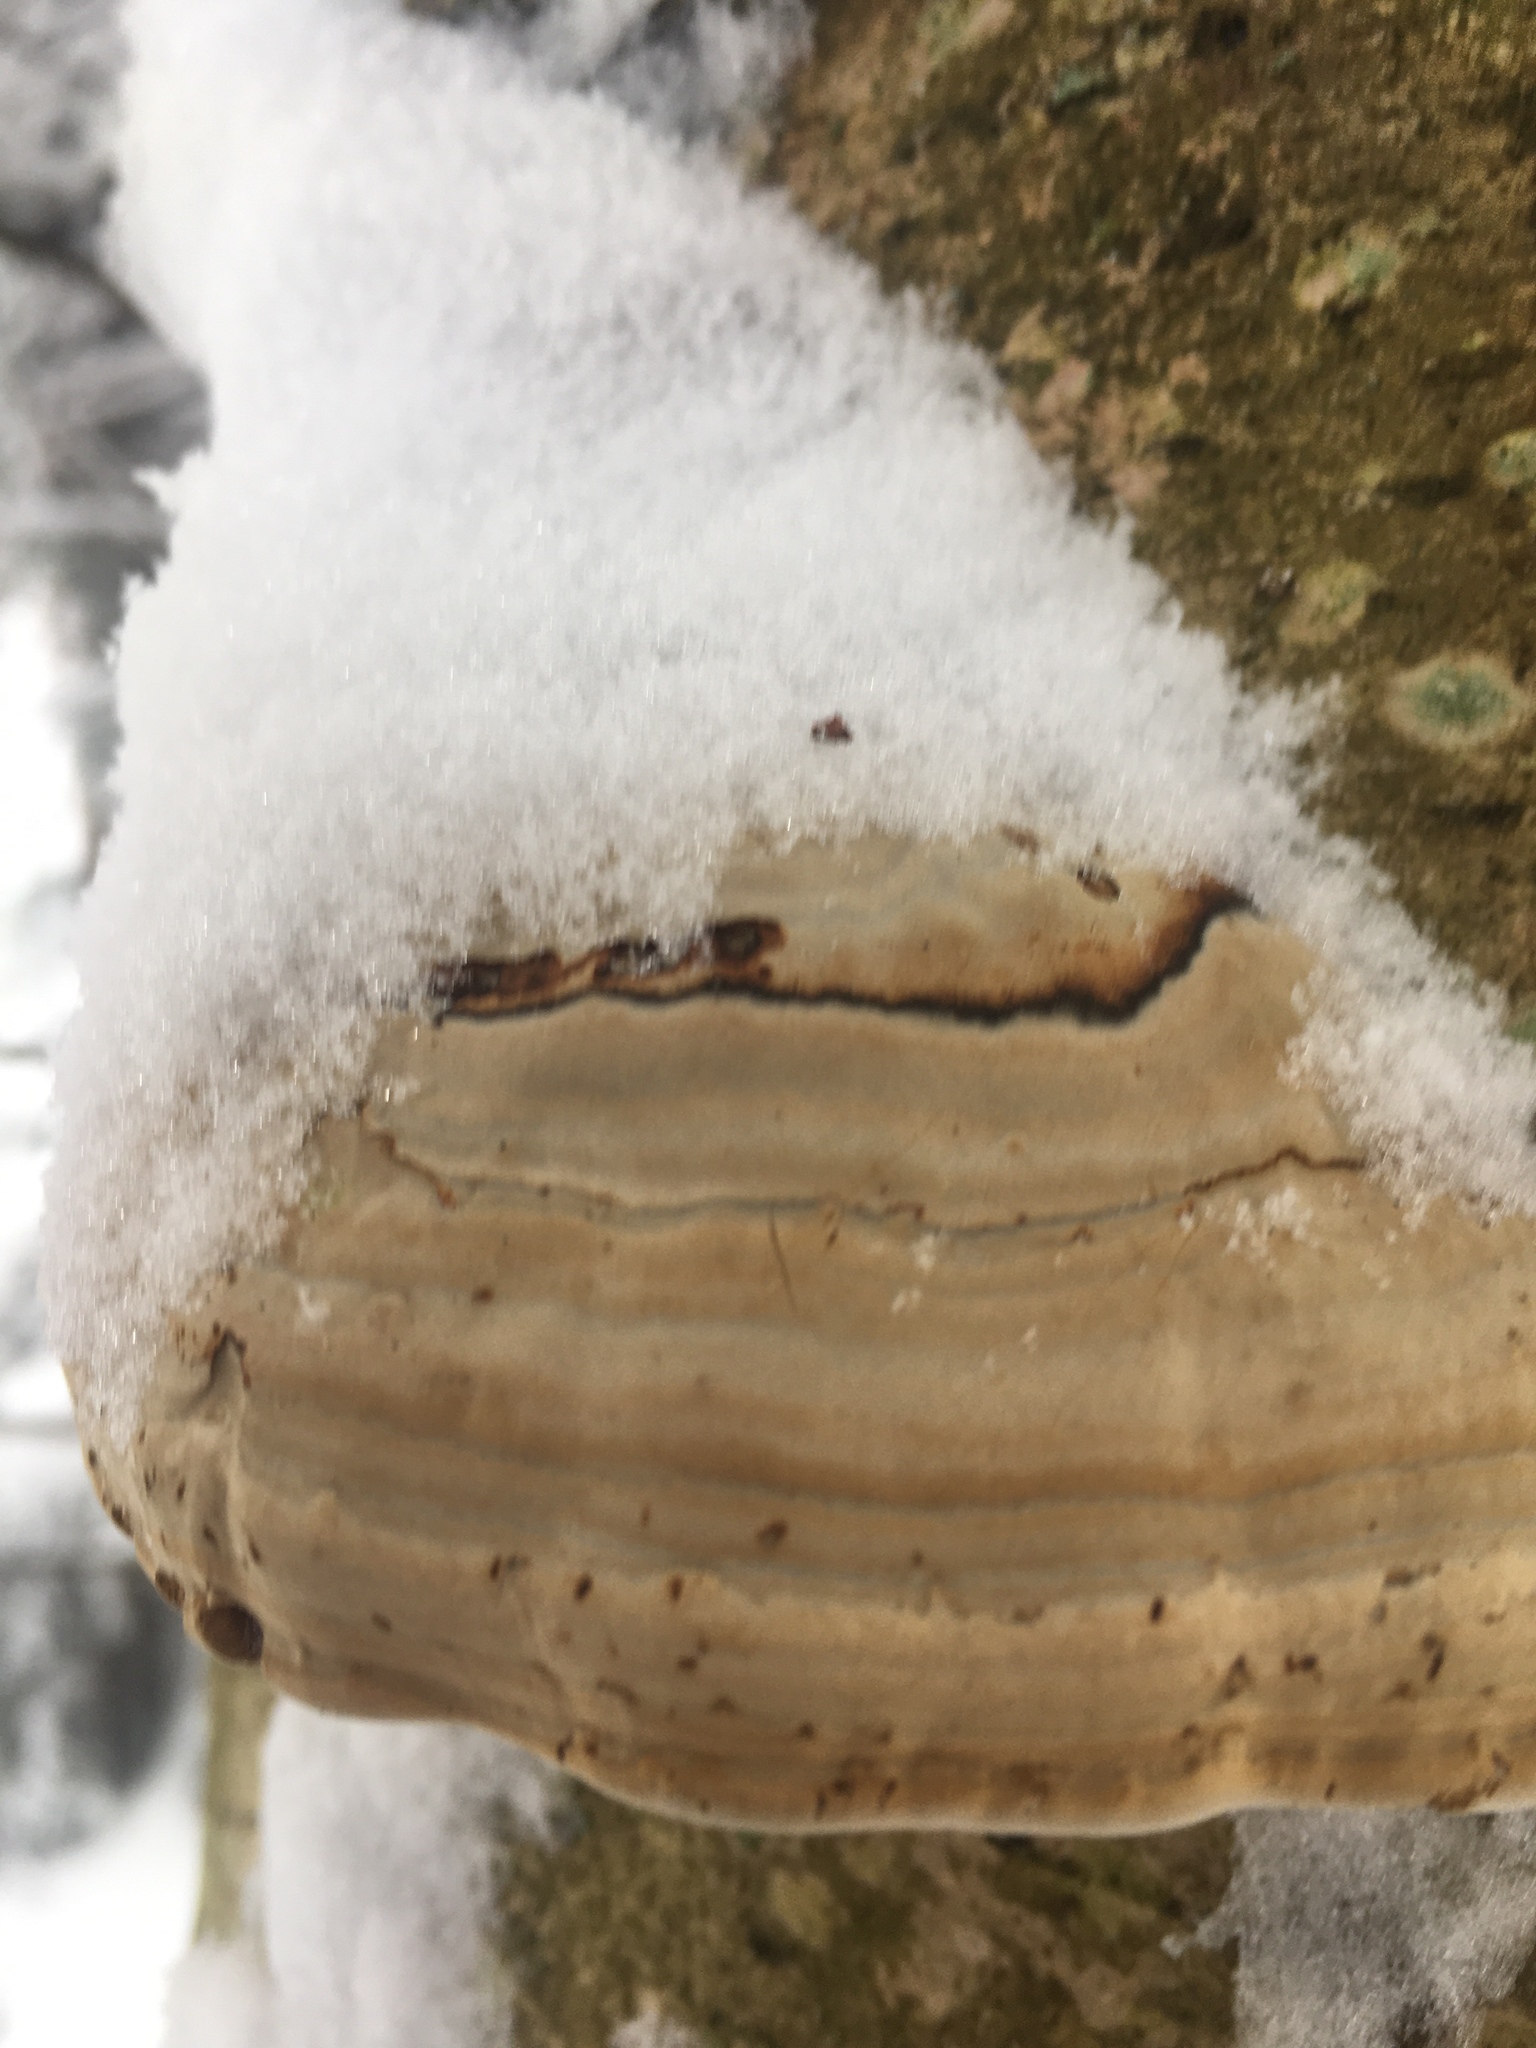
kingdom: Fungi
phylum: Basidiomycota
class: Agaricomycetes
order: Polyporales
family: Polyporaceae
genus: Fomes
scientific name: Fomes fomentarius
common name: Hoof fungus
